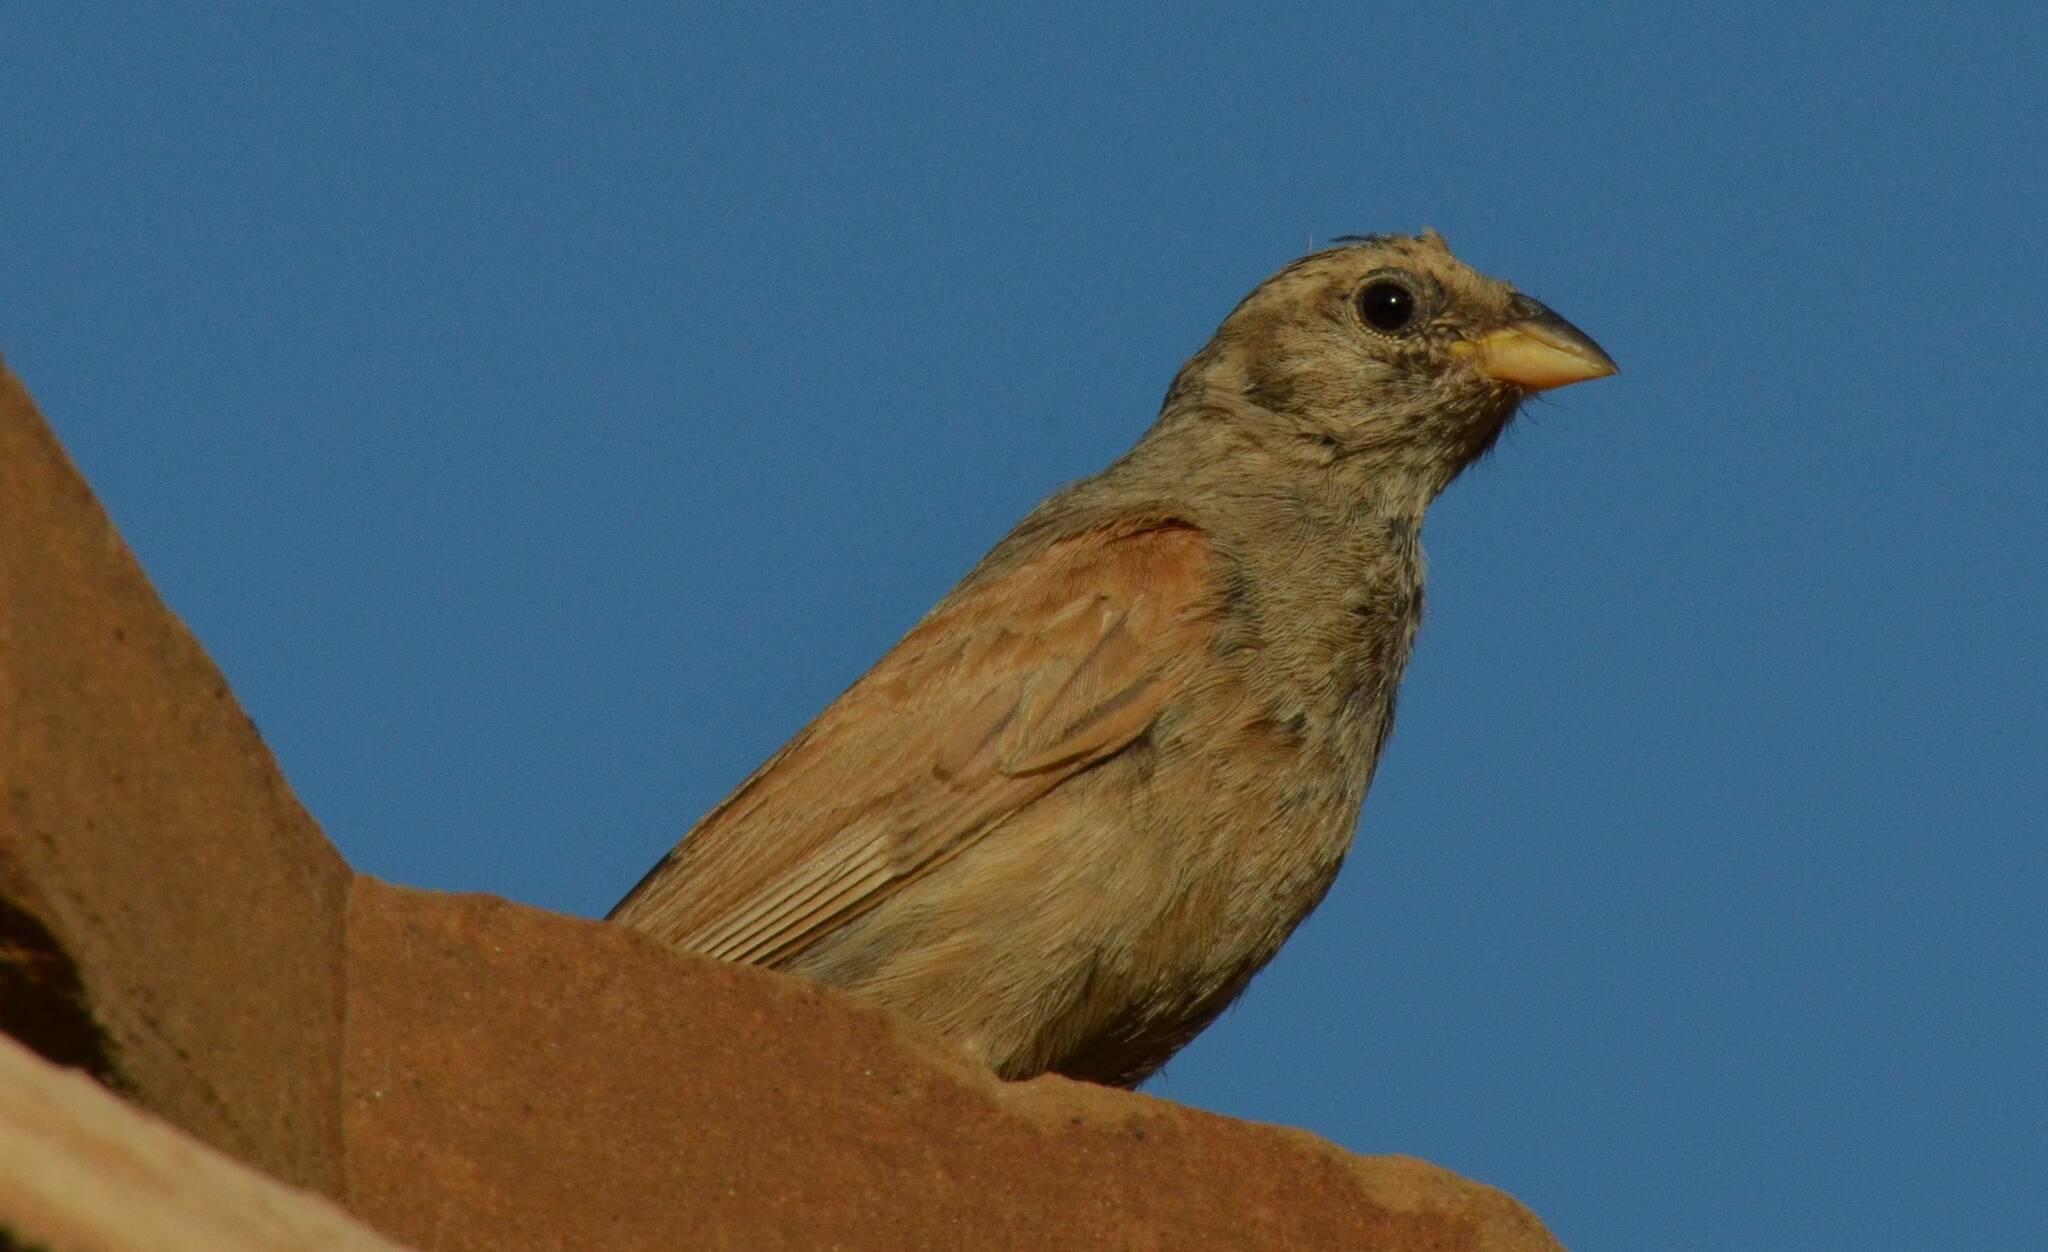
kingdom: Animalia
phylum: Chordata
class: Aves
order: Passeriformes
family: Emberizidae
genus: Emberiza
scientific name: Emberiza sahari
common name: House bunting
